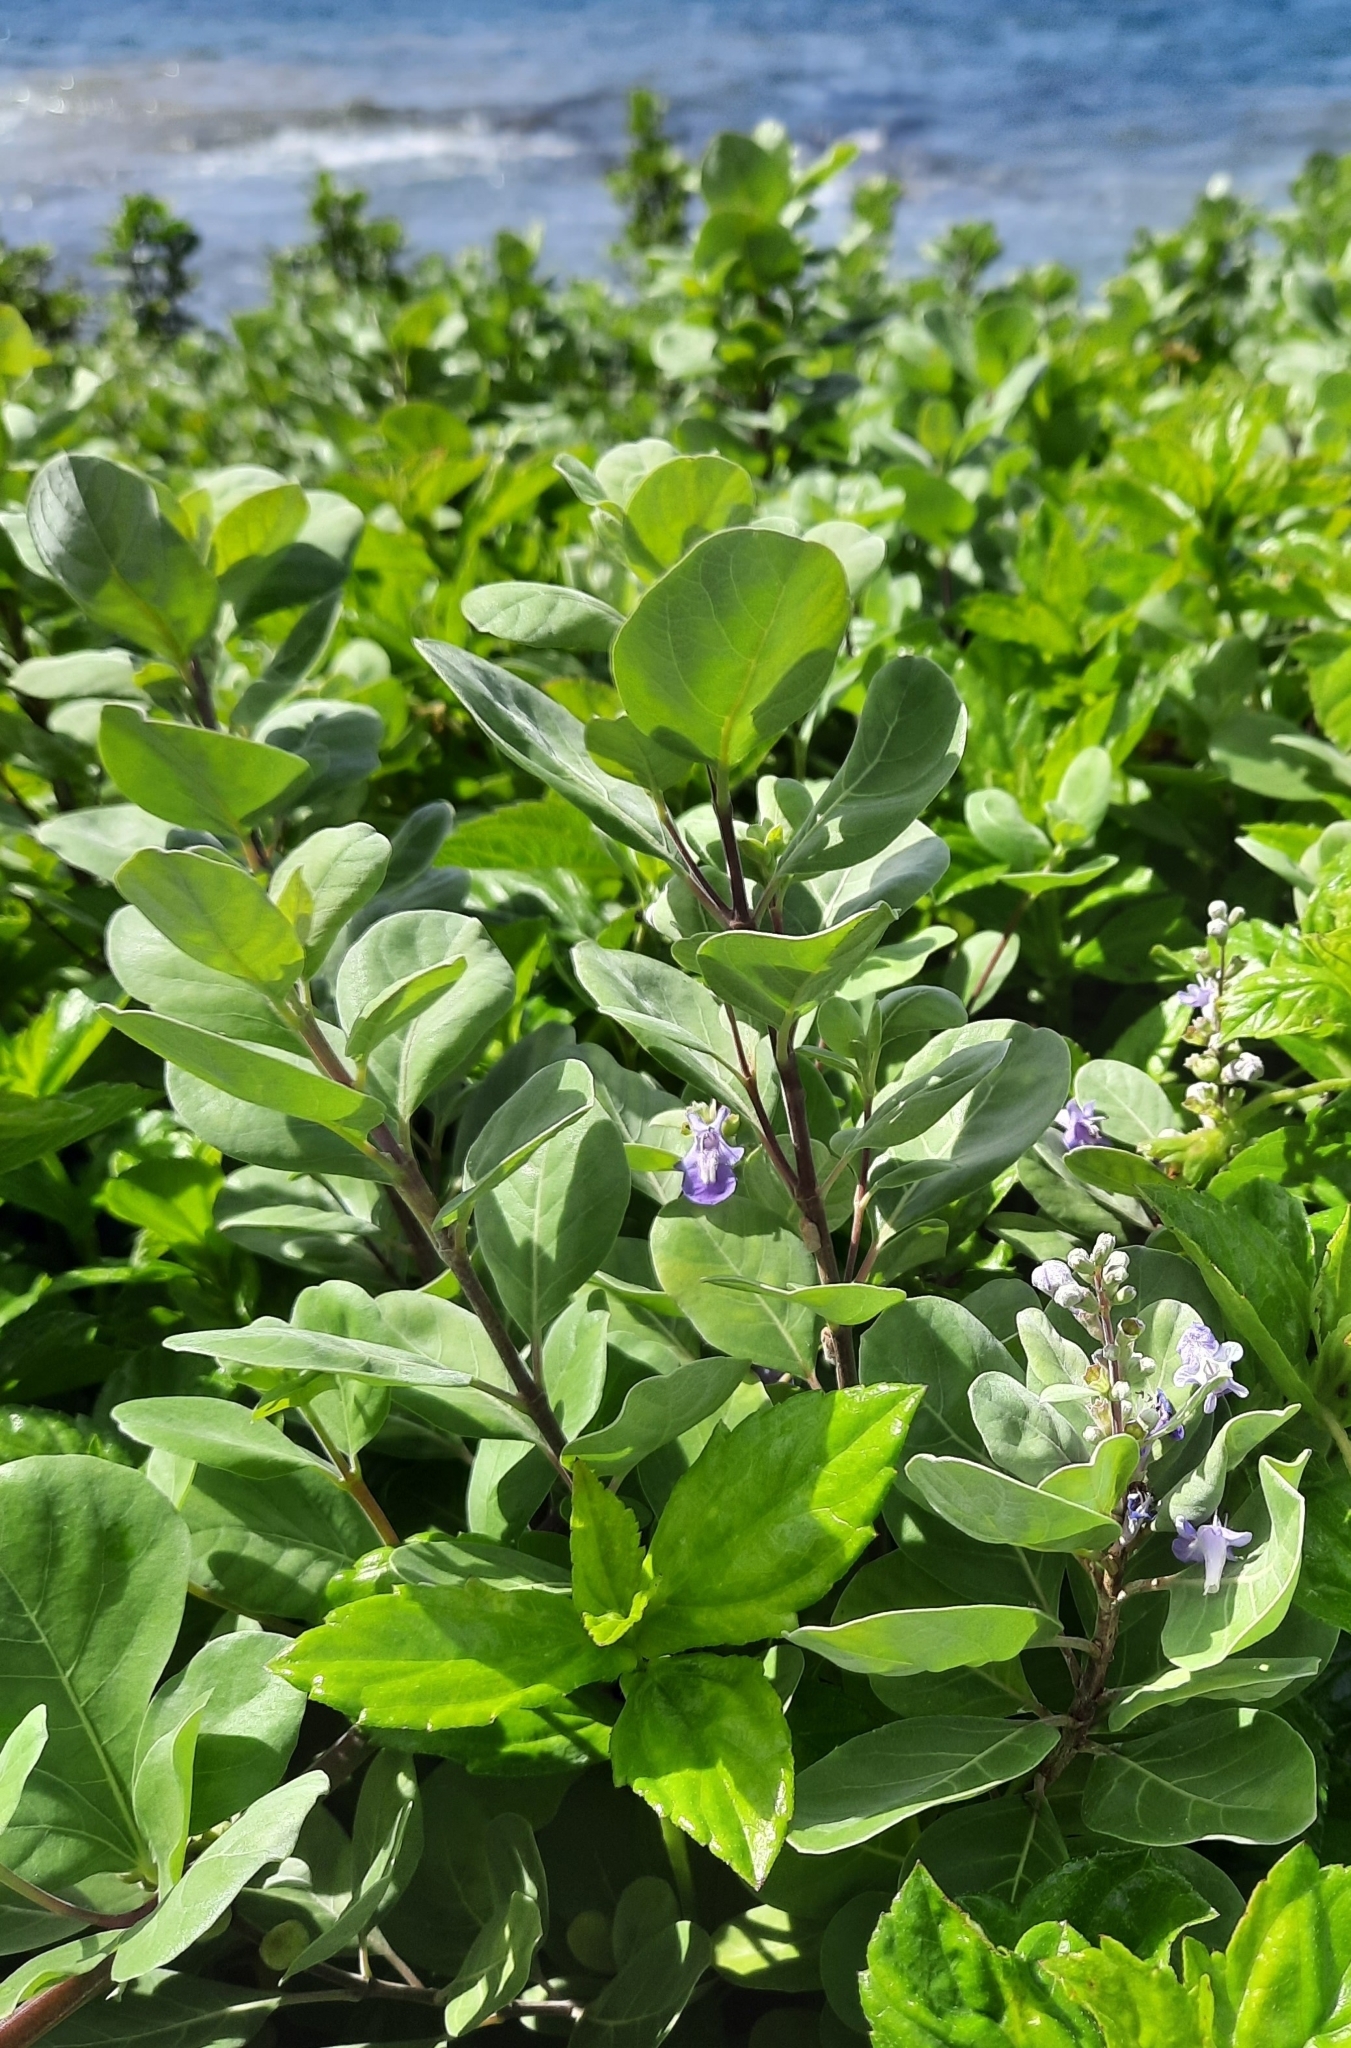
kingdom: Plantae
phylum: Tracheophyta
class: Magnoliopsida
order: Lamiales
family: Lamiaceae
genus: Vitex
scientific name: Vitex rotundifolia
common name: Beach vitex
